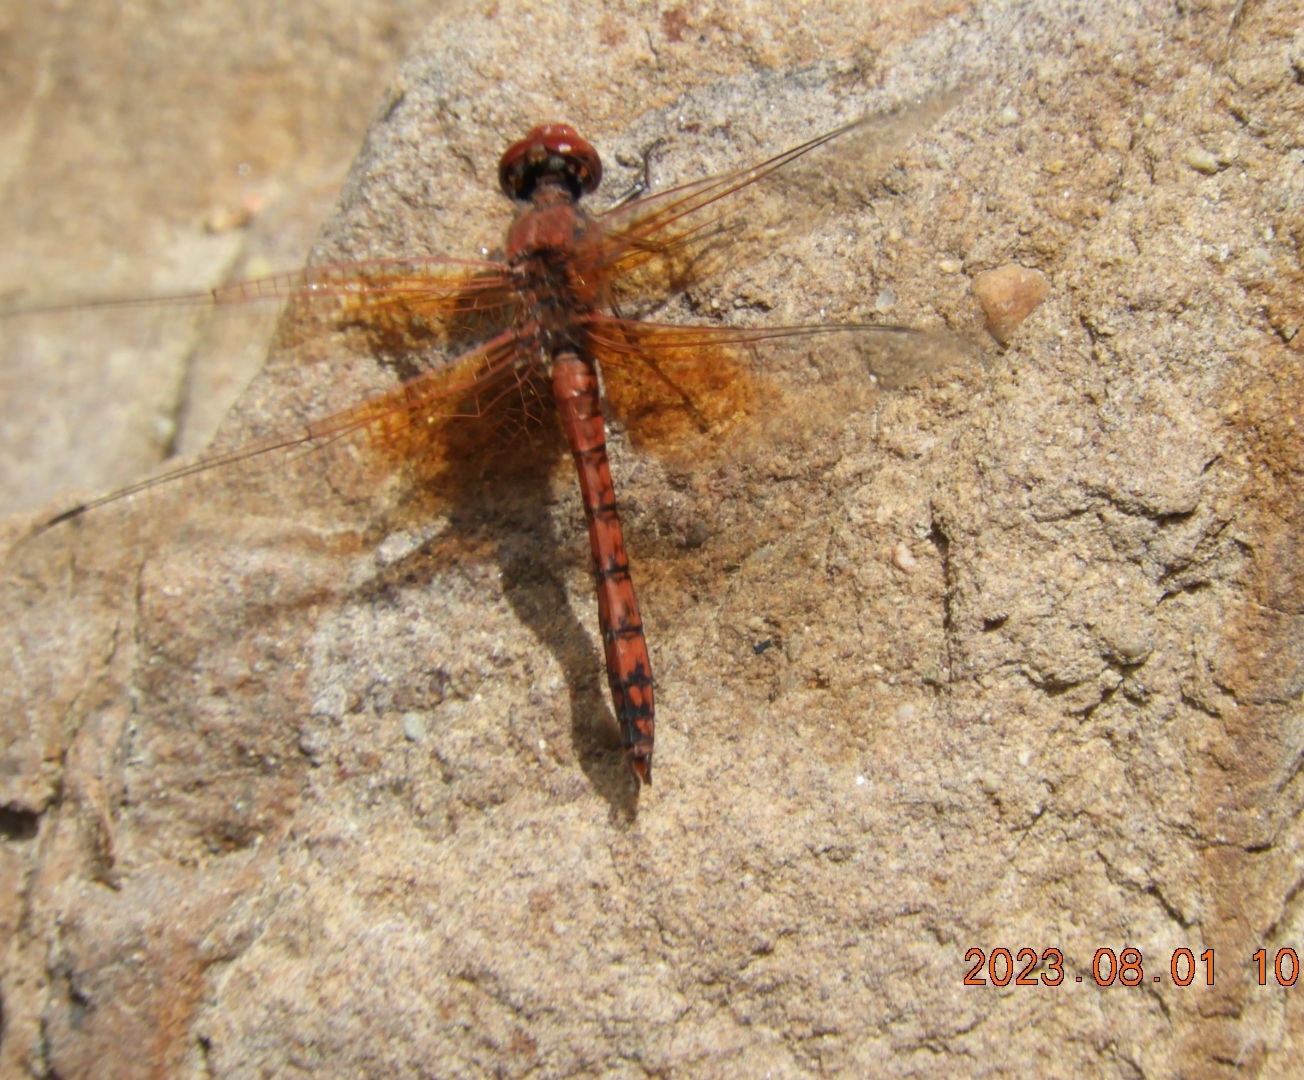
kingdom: Animalia
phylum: Arthropoda
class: Insecta
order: Odonata
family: Libellulidae
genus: Paltothemis
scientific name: Paltothemis lineatipes
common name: Red rock skimmer
